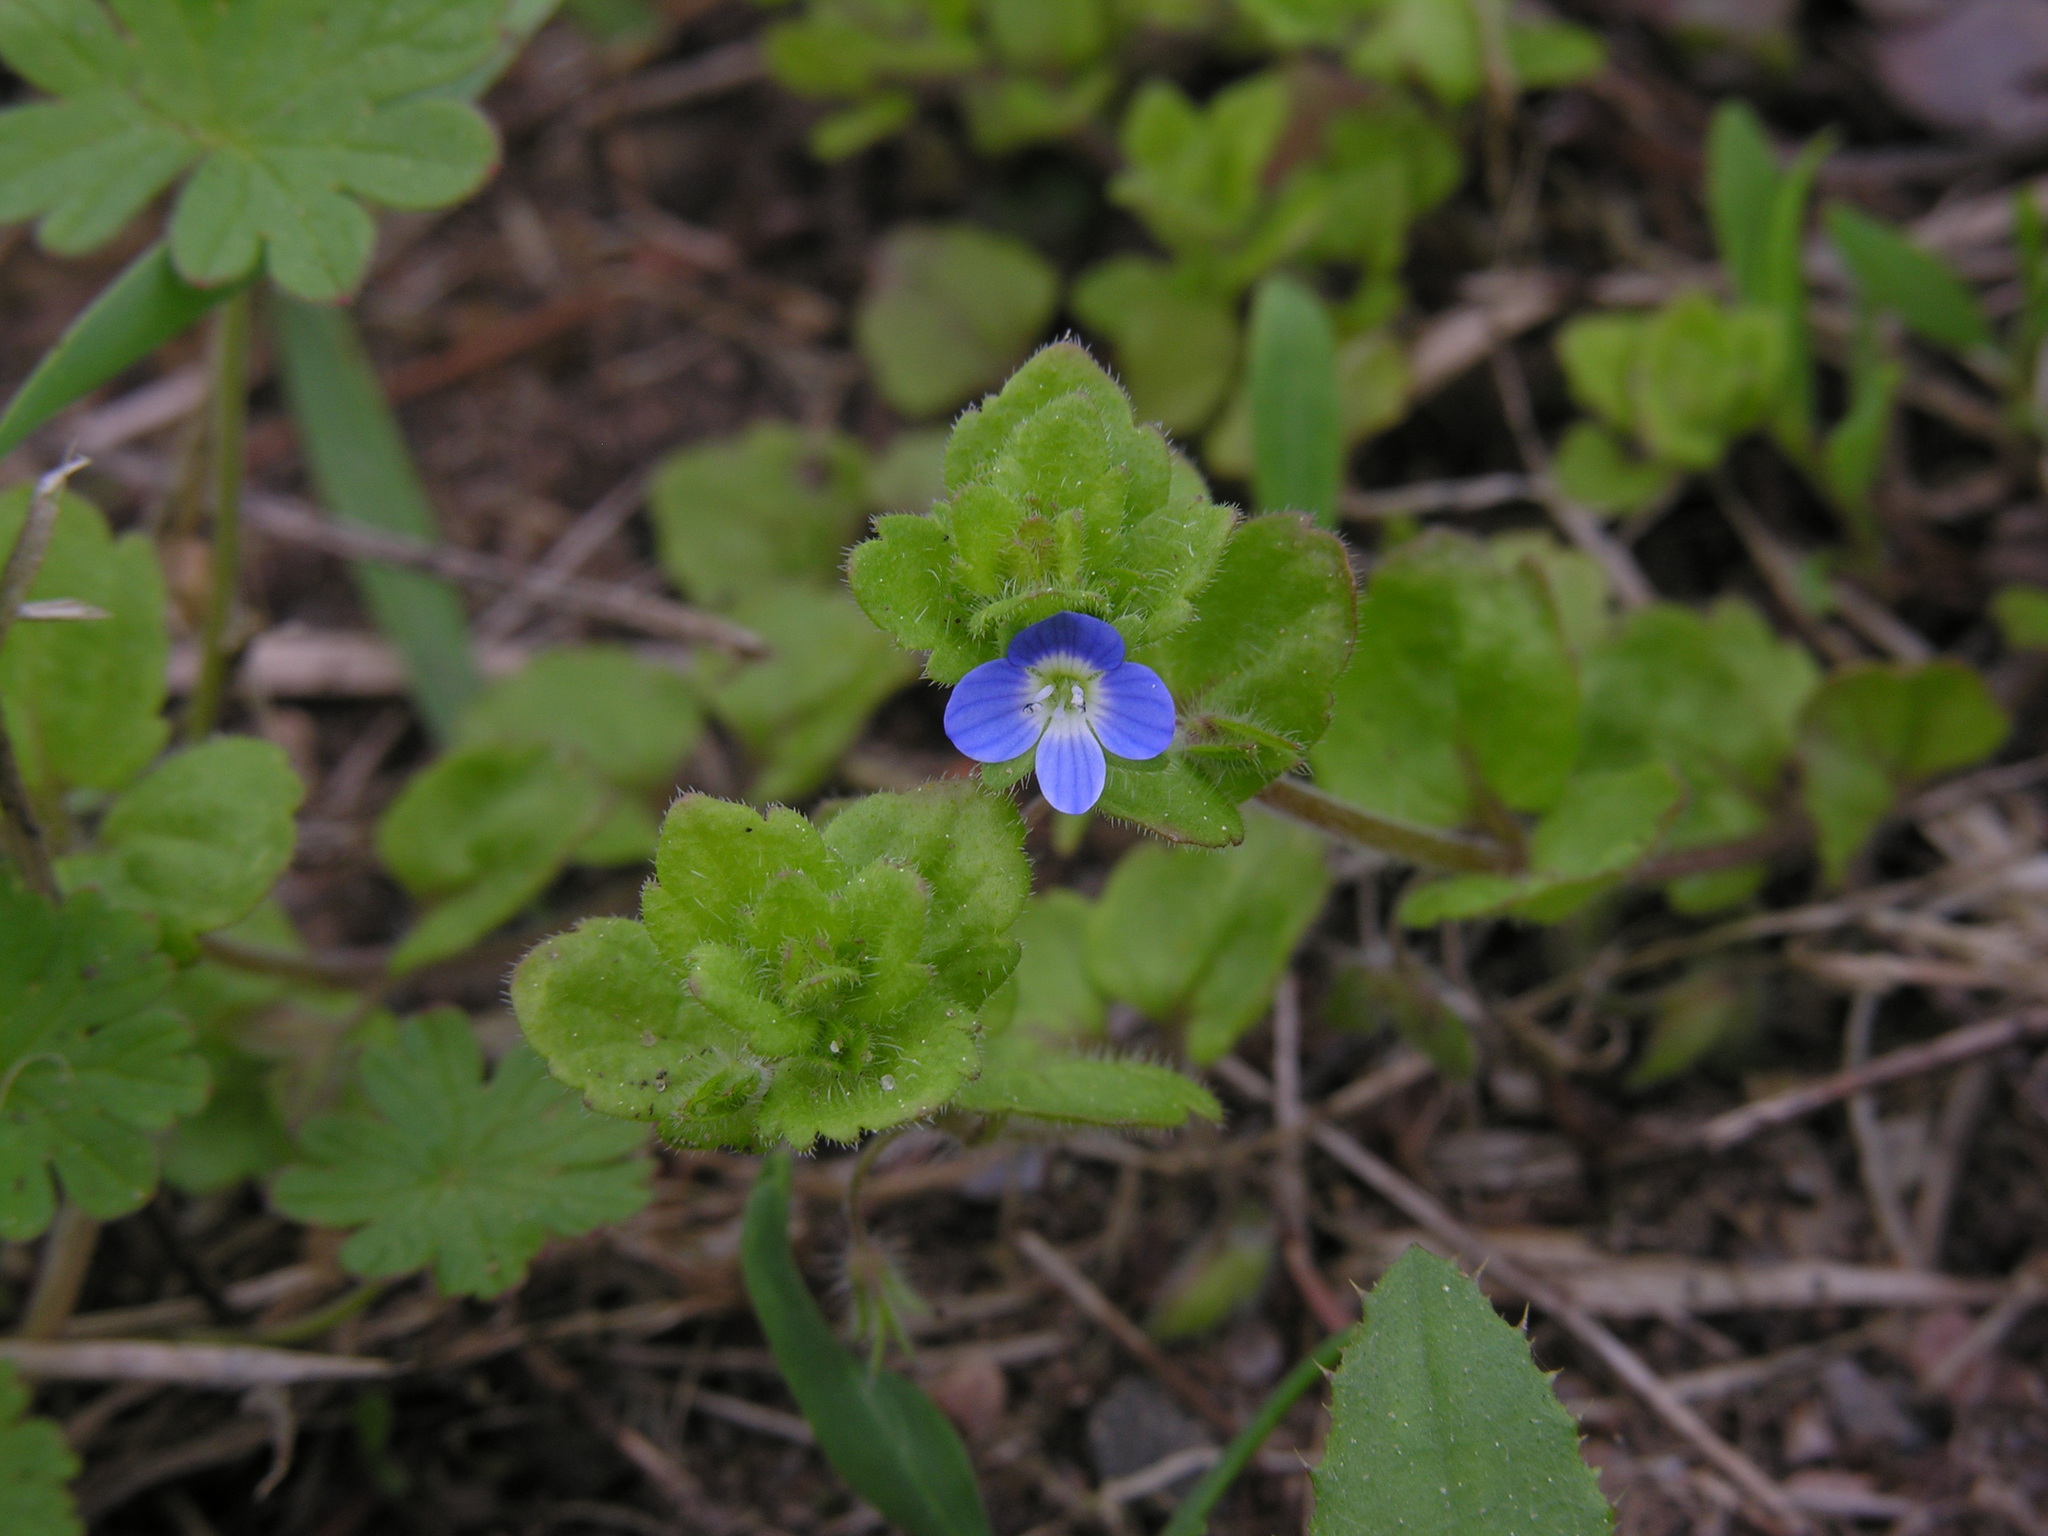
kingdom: Plantae
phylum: Tracheophyta
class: Magnoliopsida
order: Lamiales
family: Plantaginaceae
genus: Veronica
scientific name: Veronica persica
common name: Common field-speedwell
